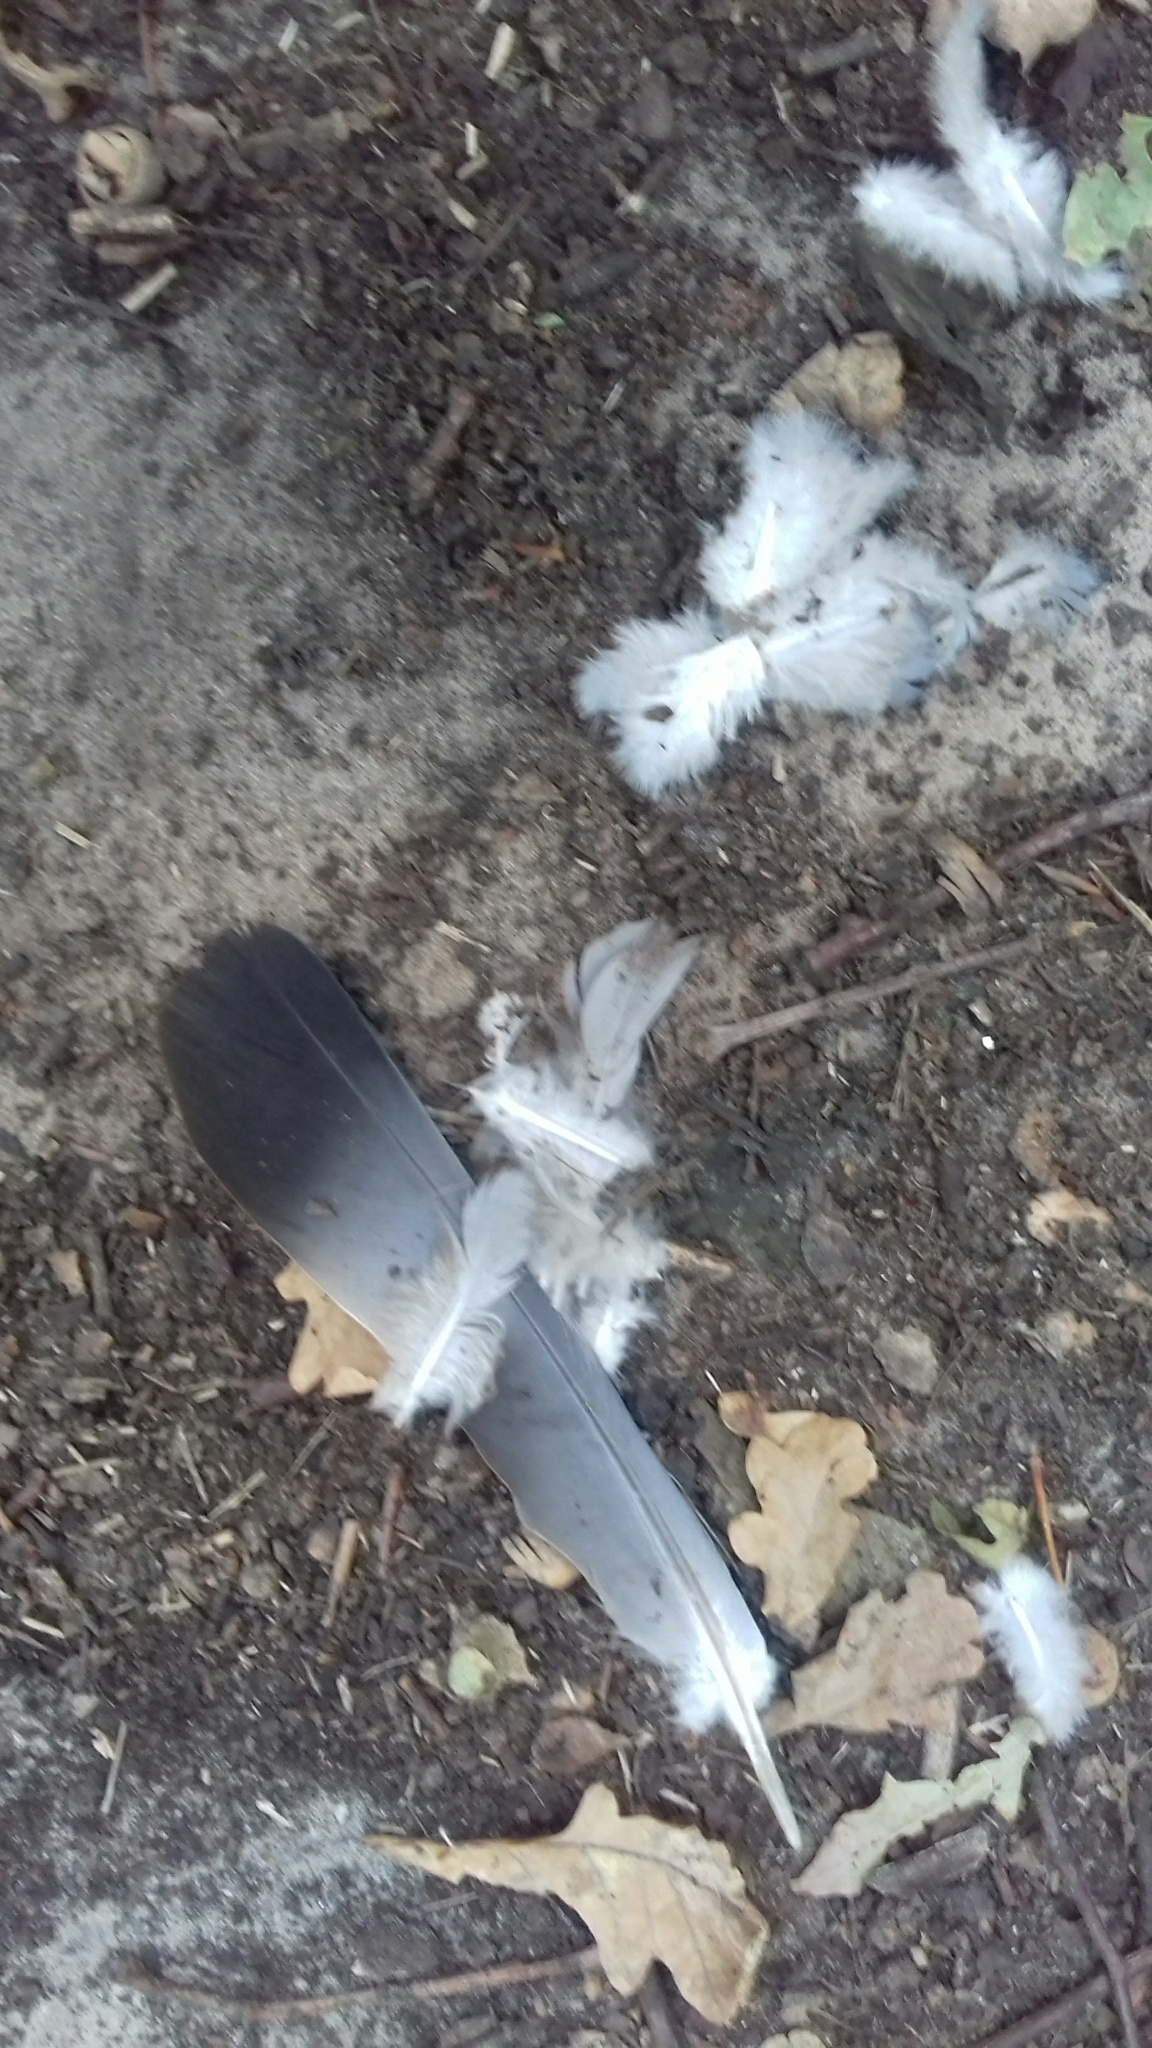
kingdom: Animalia
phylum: Chordata
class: Aves
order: Columbiformes
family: Columbidae
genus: Columba
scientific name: Columba palumbus
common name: Common wood pigeon
